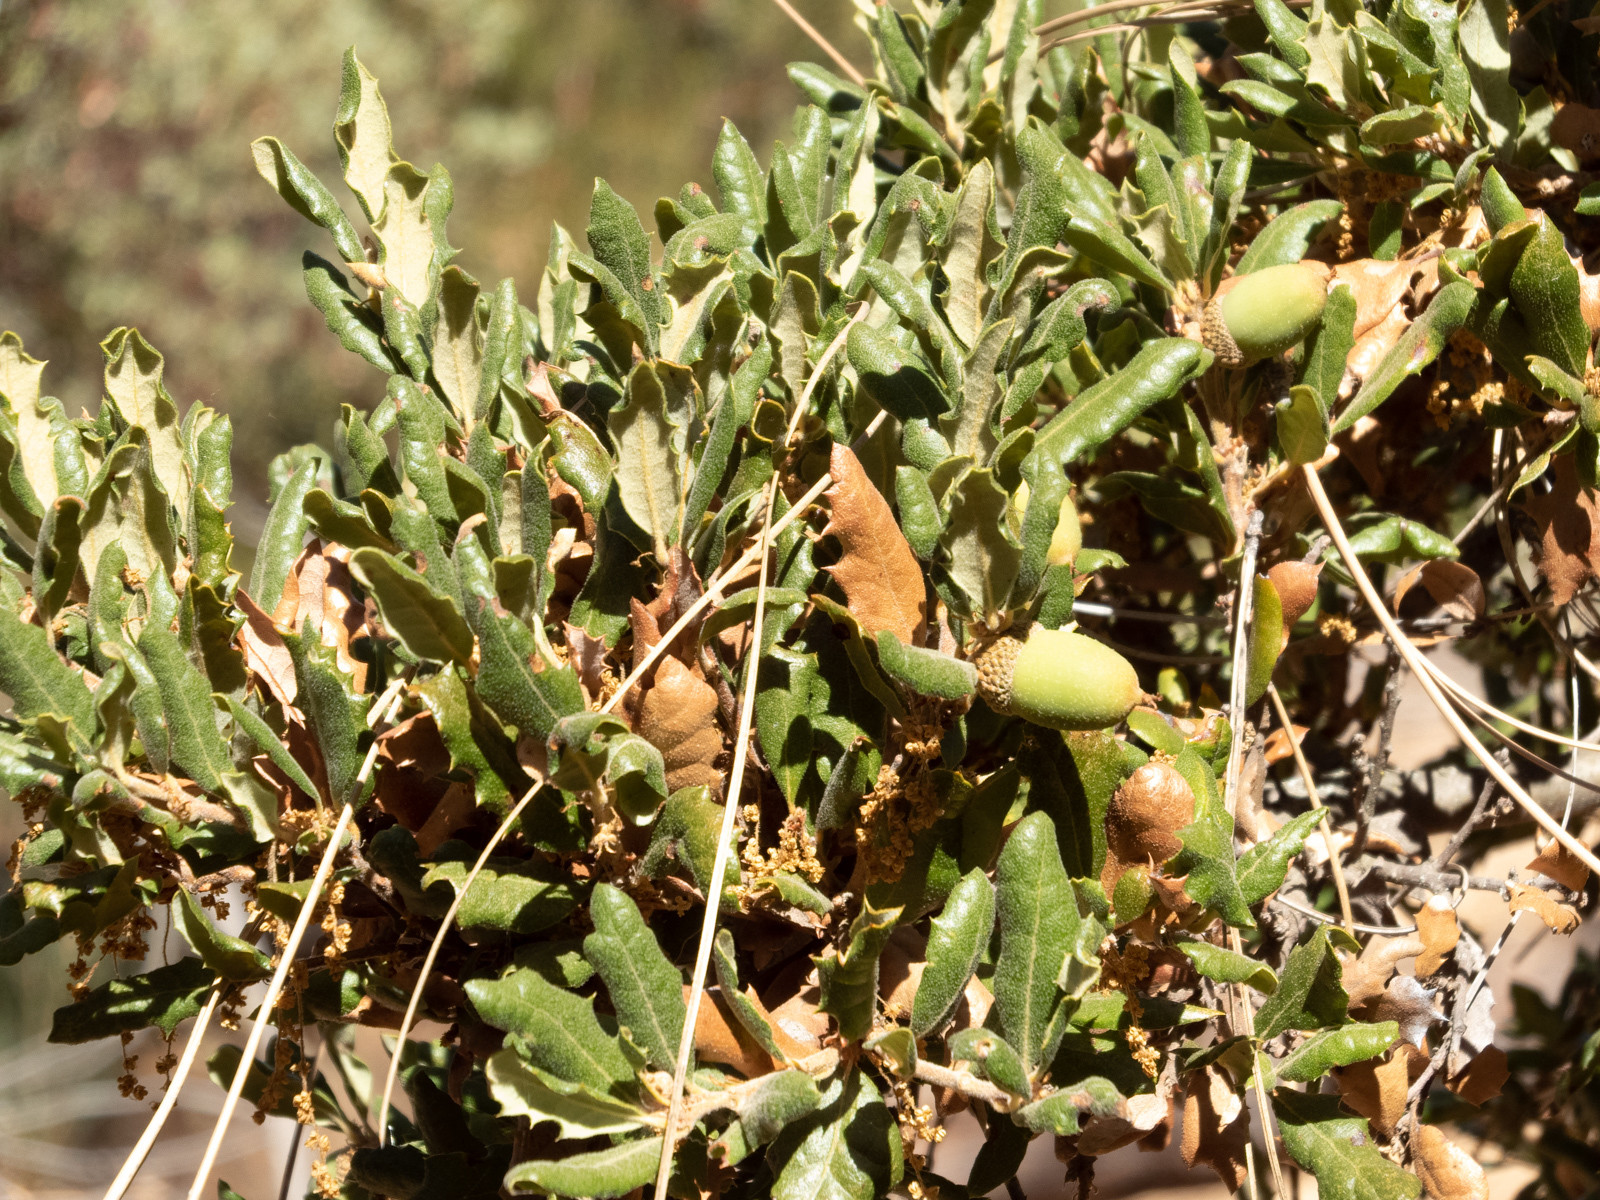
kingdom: Plantae
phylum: Tracheophyta
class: Magnoliopsida
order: Fagales
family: Fagaceae
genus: Quercus
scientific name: Quercus durata
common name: Leather oak
